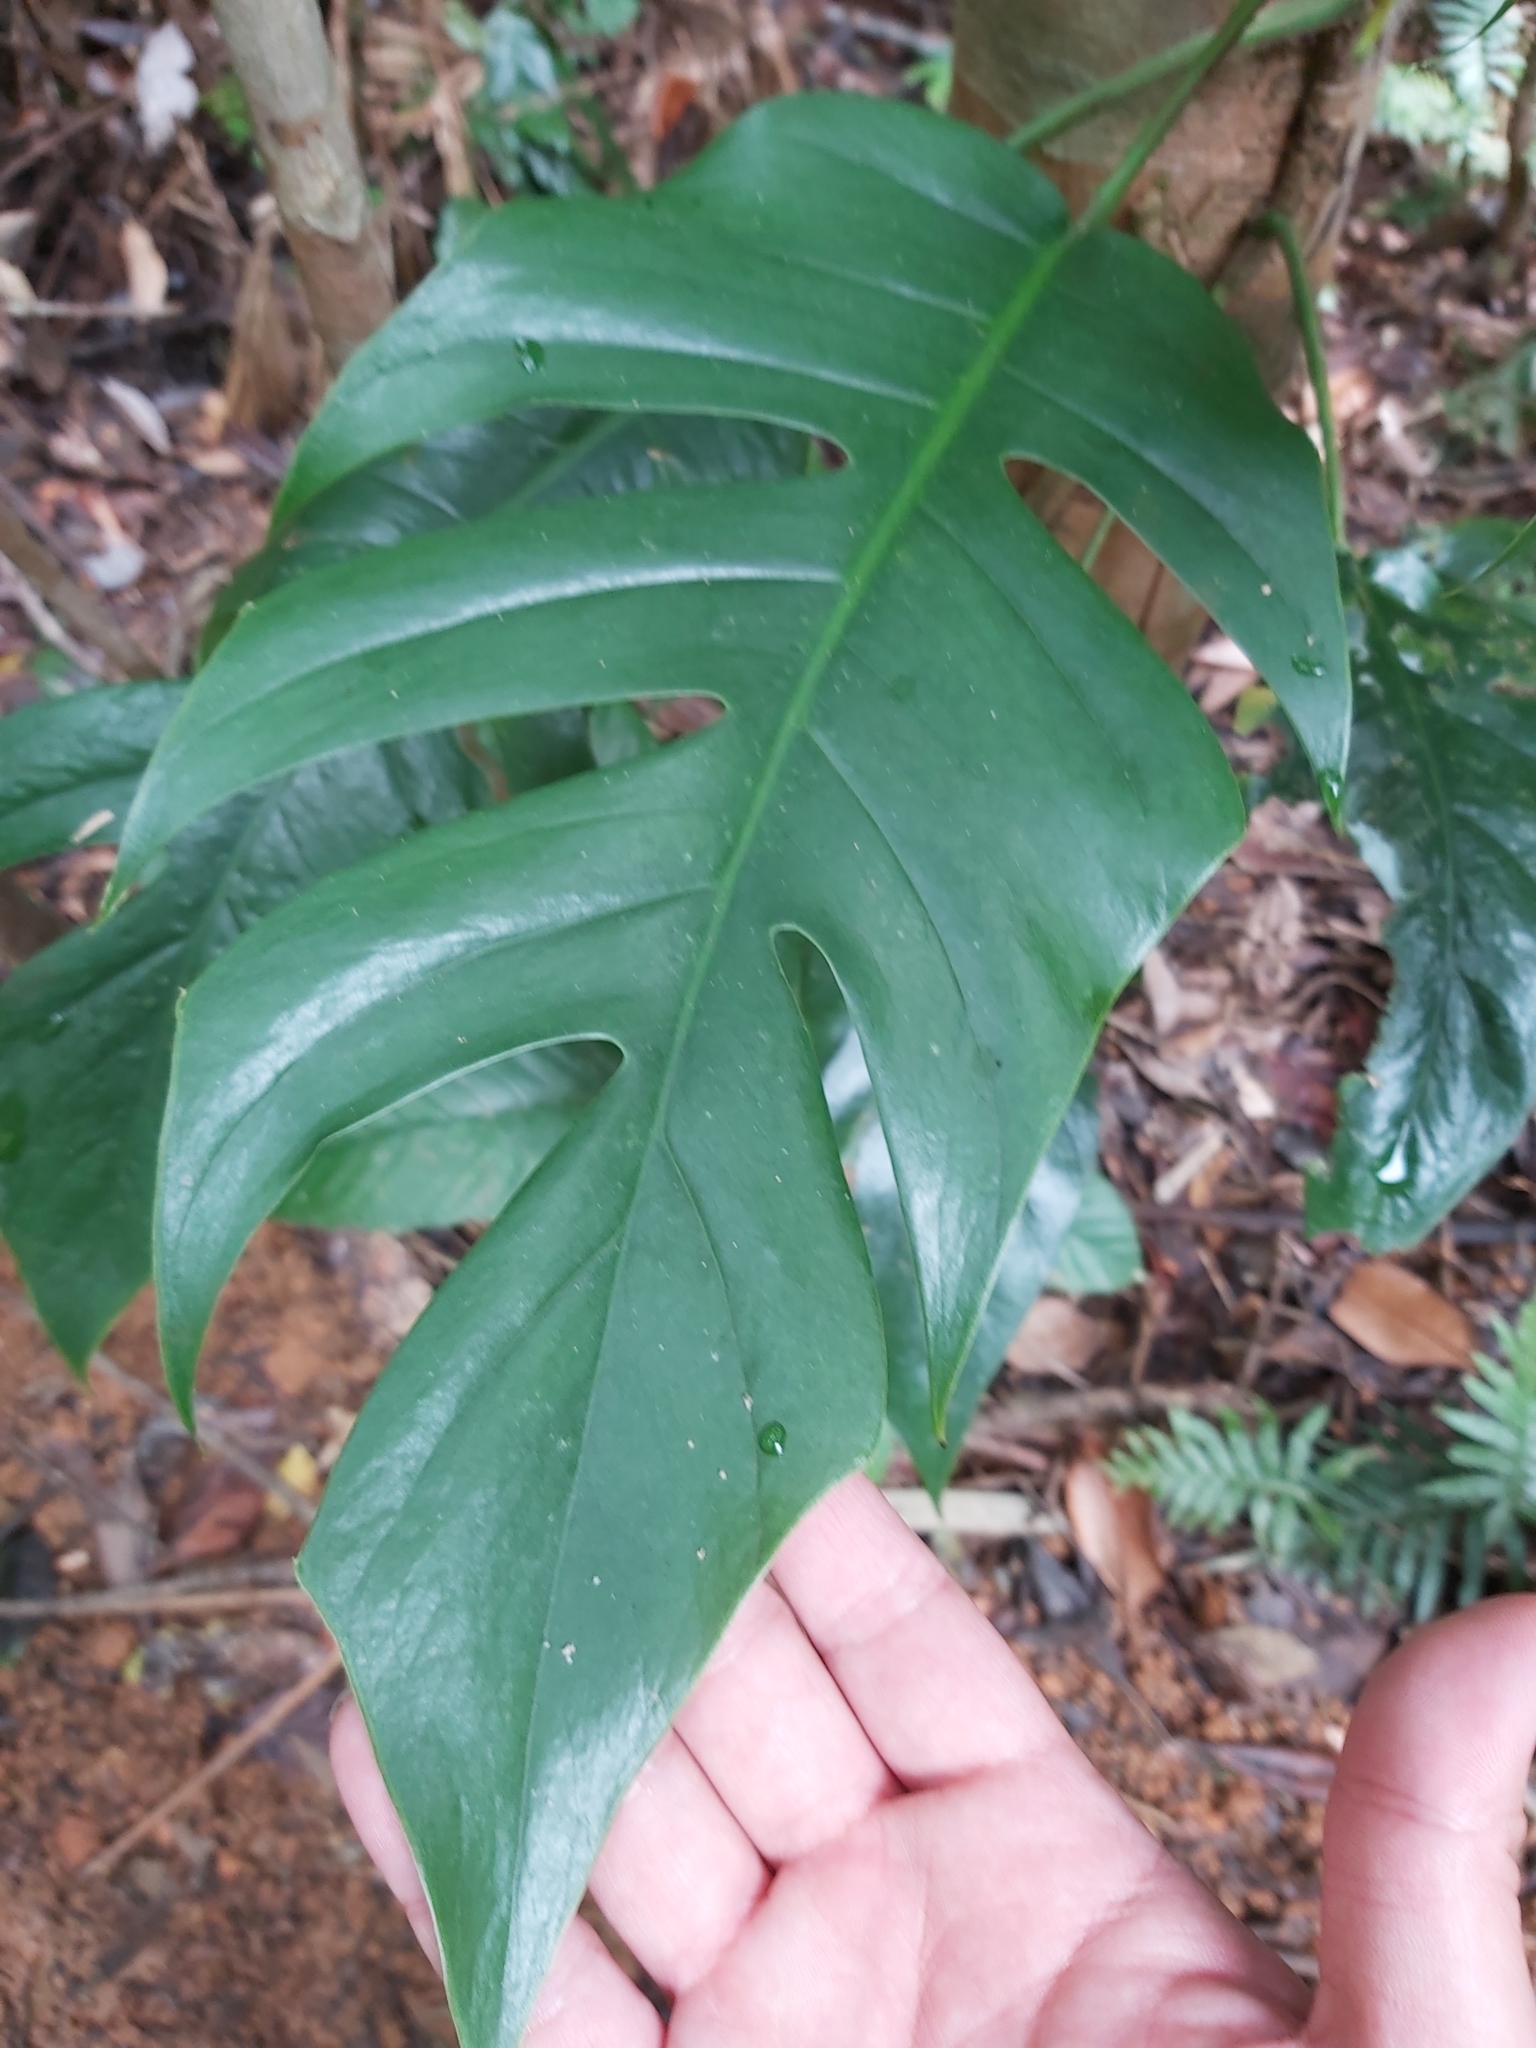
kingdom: Plantae
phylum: Tracheophyta
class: Liliopsida
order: Alismatales
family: Araceae
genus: Epipremnum
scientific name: Epipremnum pinnatum
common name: Centipede tongavine
